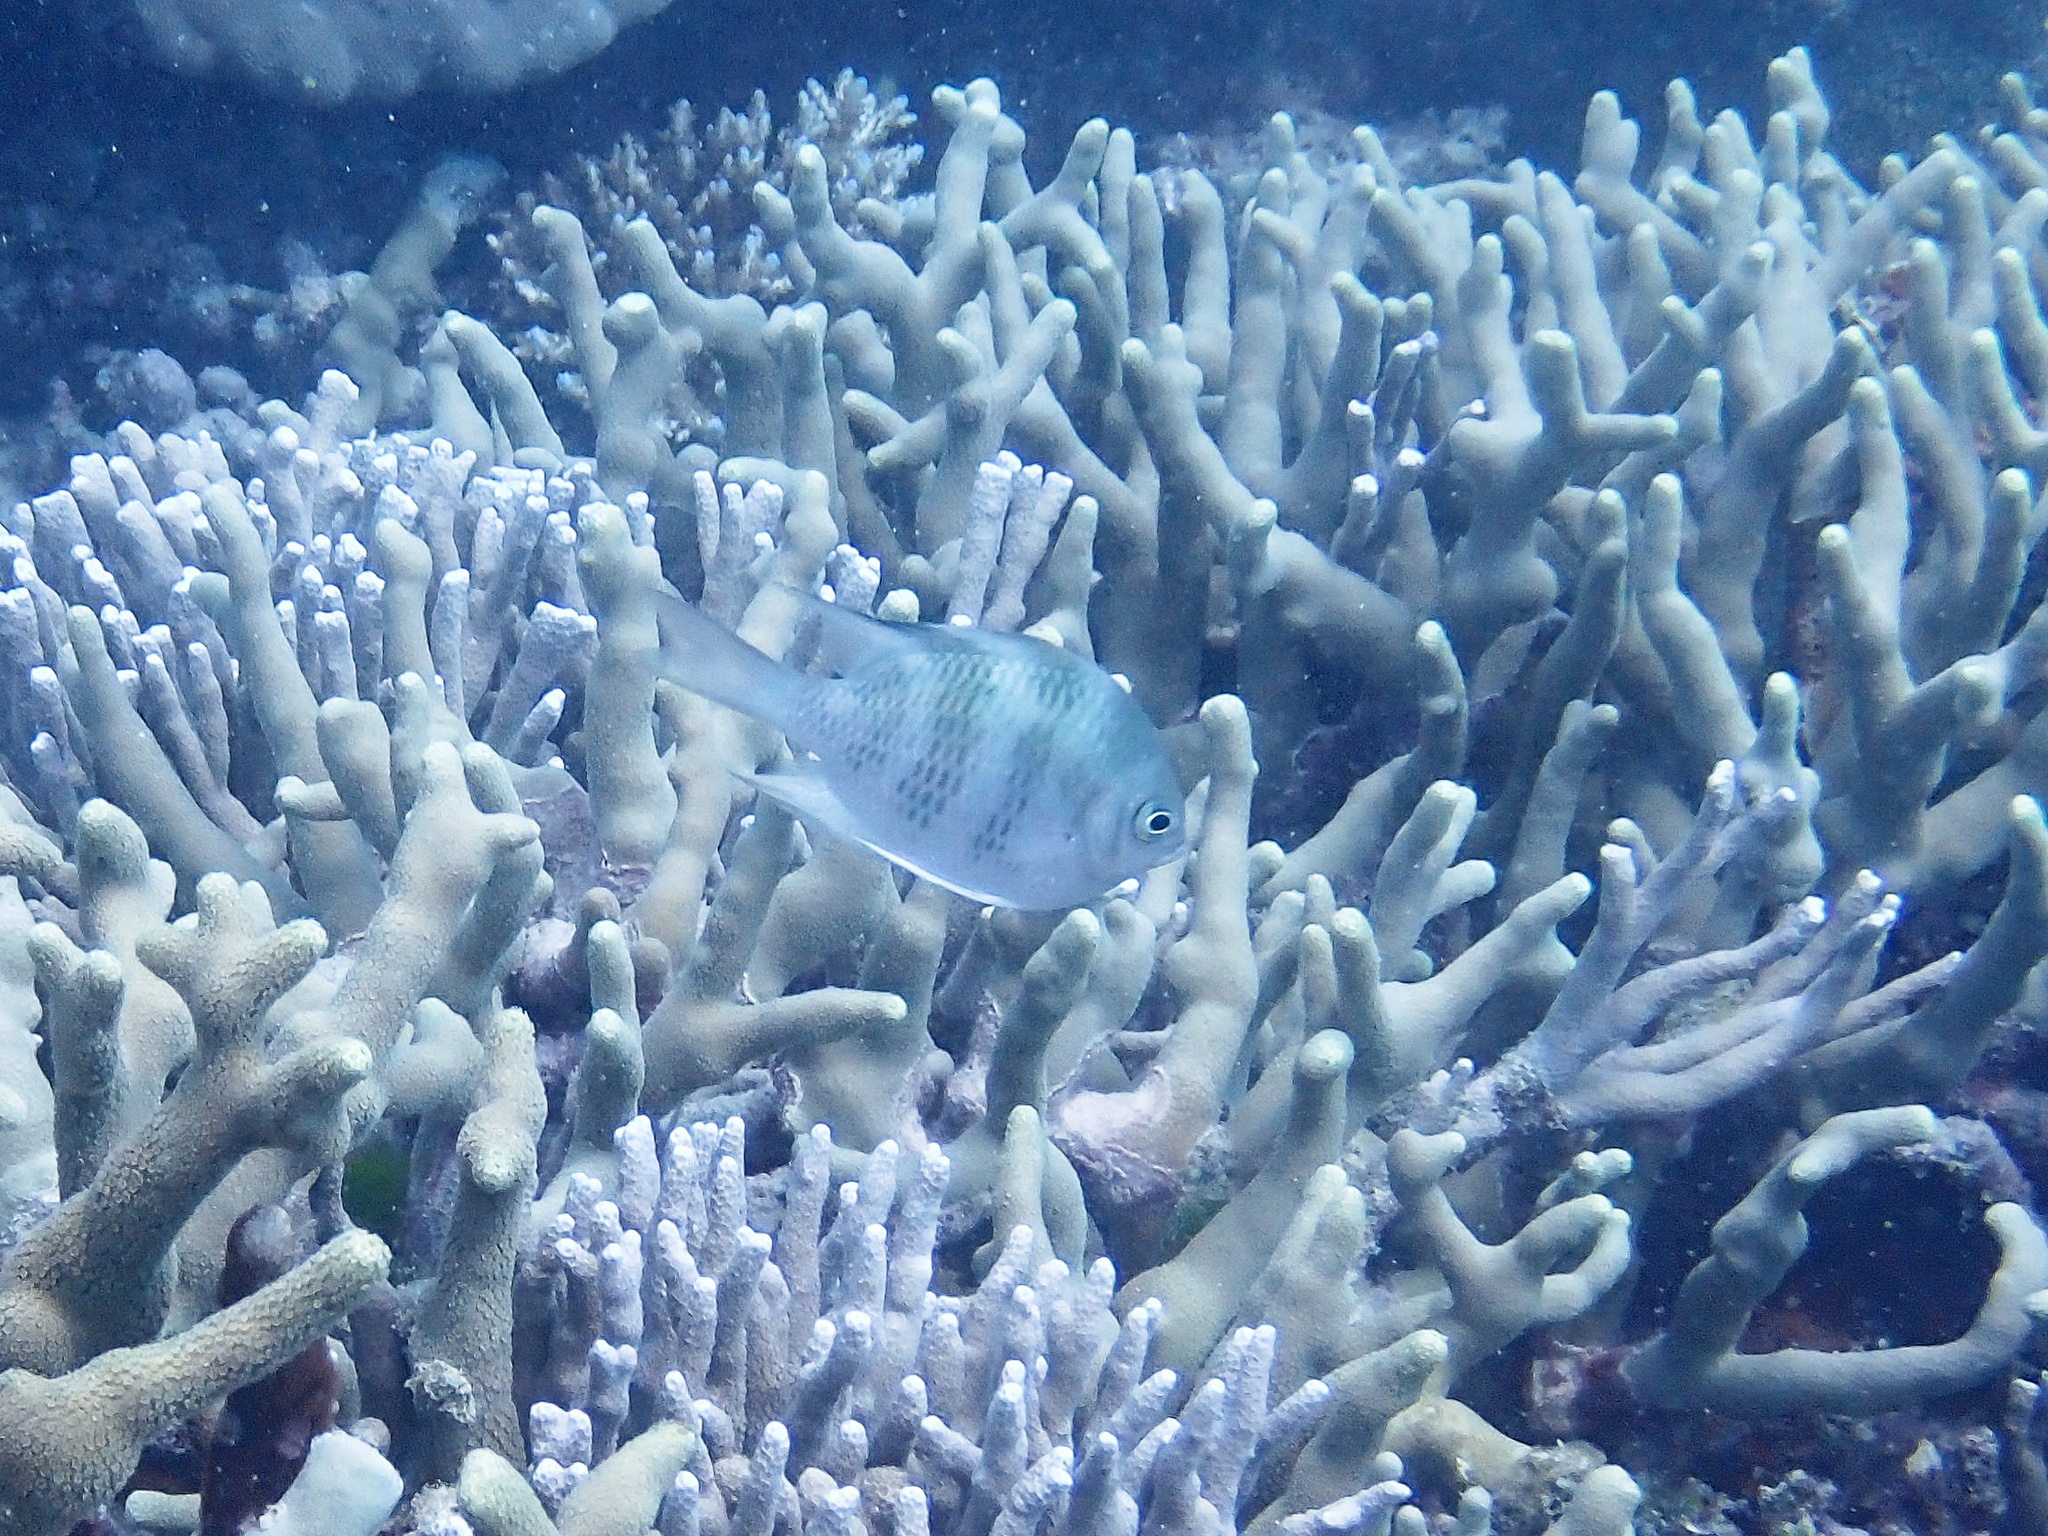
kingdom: Animalia
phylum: Chordata
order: Perciformes
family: Pomacentridae
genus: Amblyglyphidodon
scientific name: Amblyglyphidodon curacao
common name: Staghorn damsel
